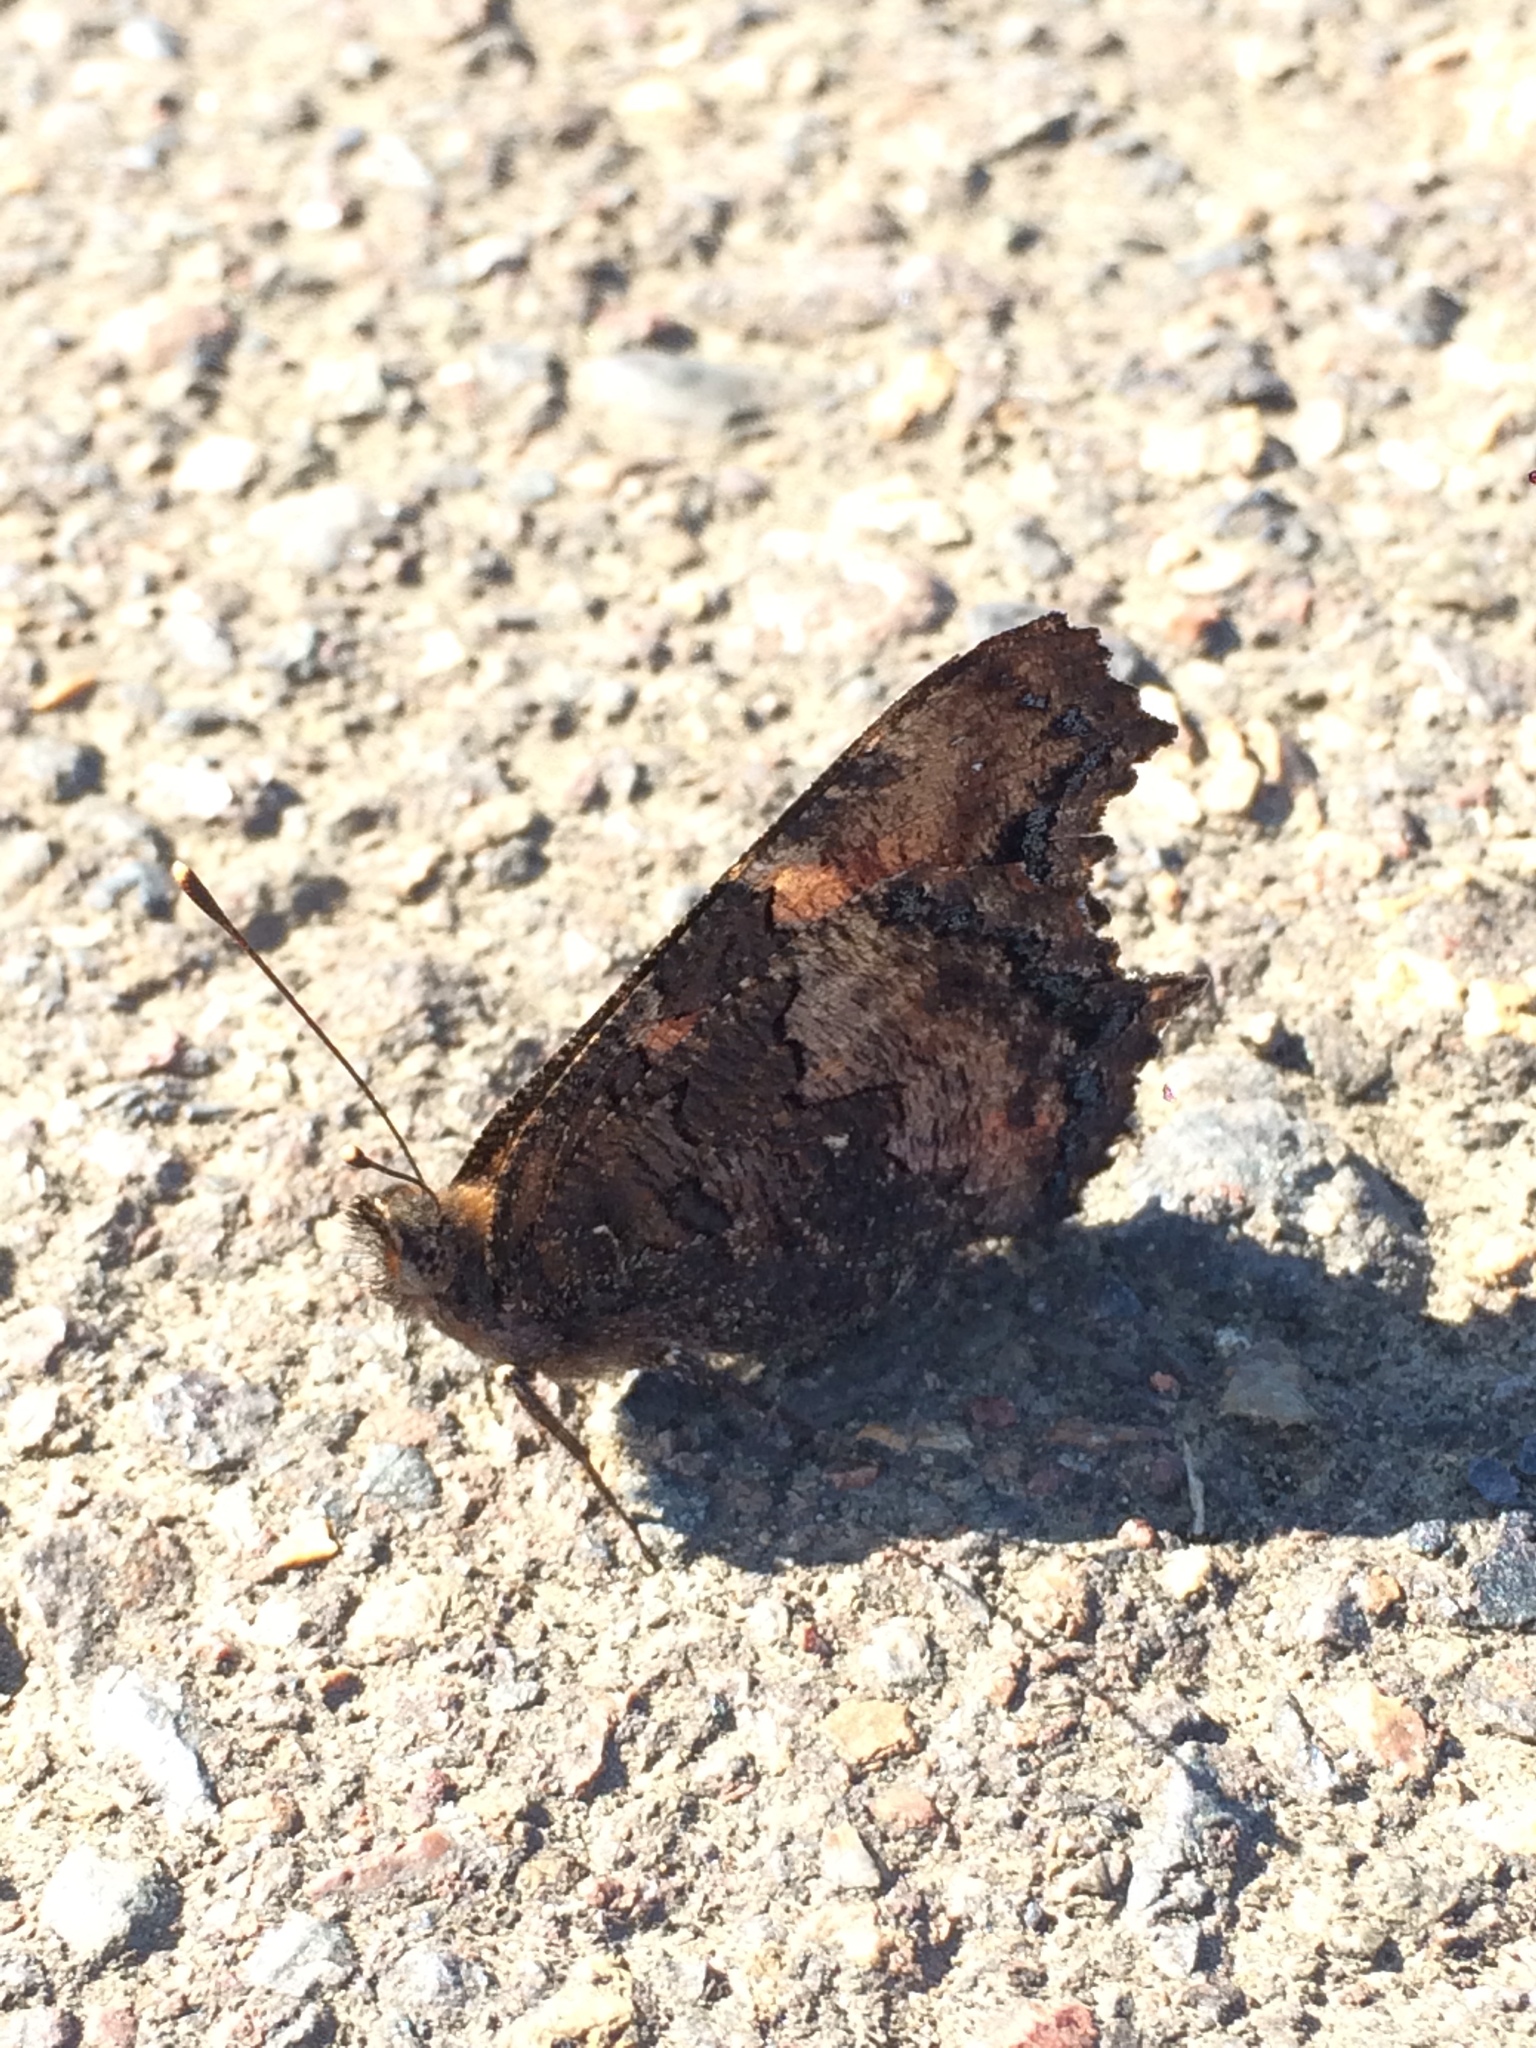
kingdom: Animalia
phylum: Arthropoda
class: Insecta
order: Lepidoptera
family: Nymphalidae
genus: Nymphalis
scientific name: Nymphalis californica
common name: California tortoiseshell
